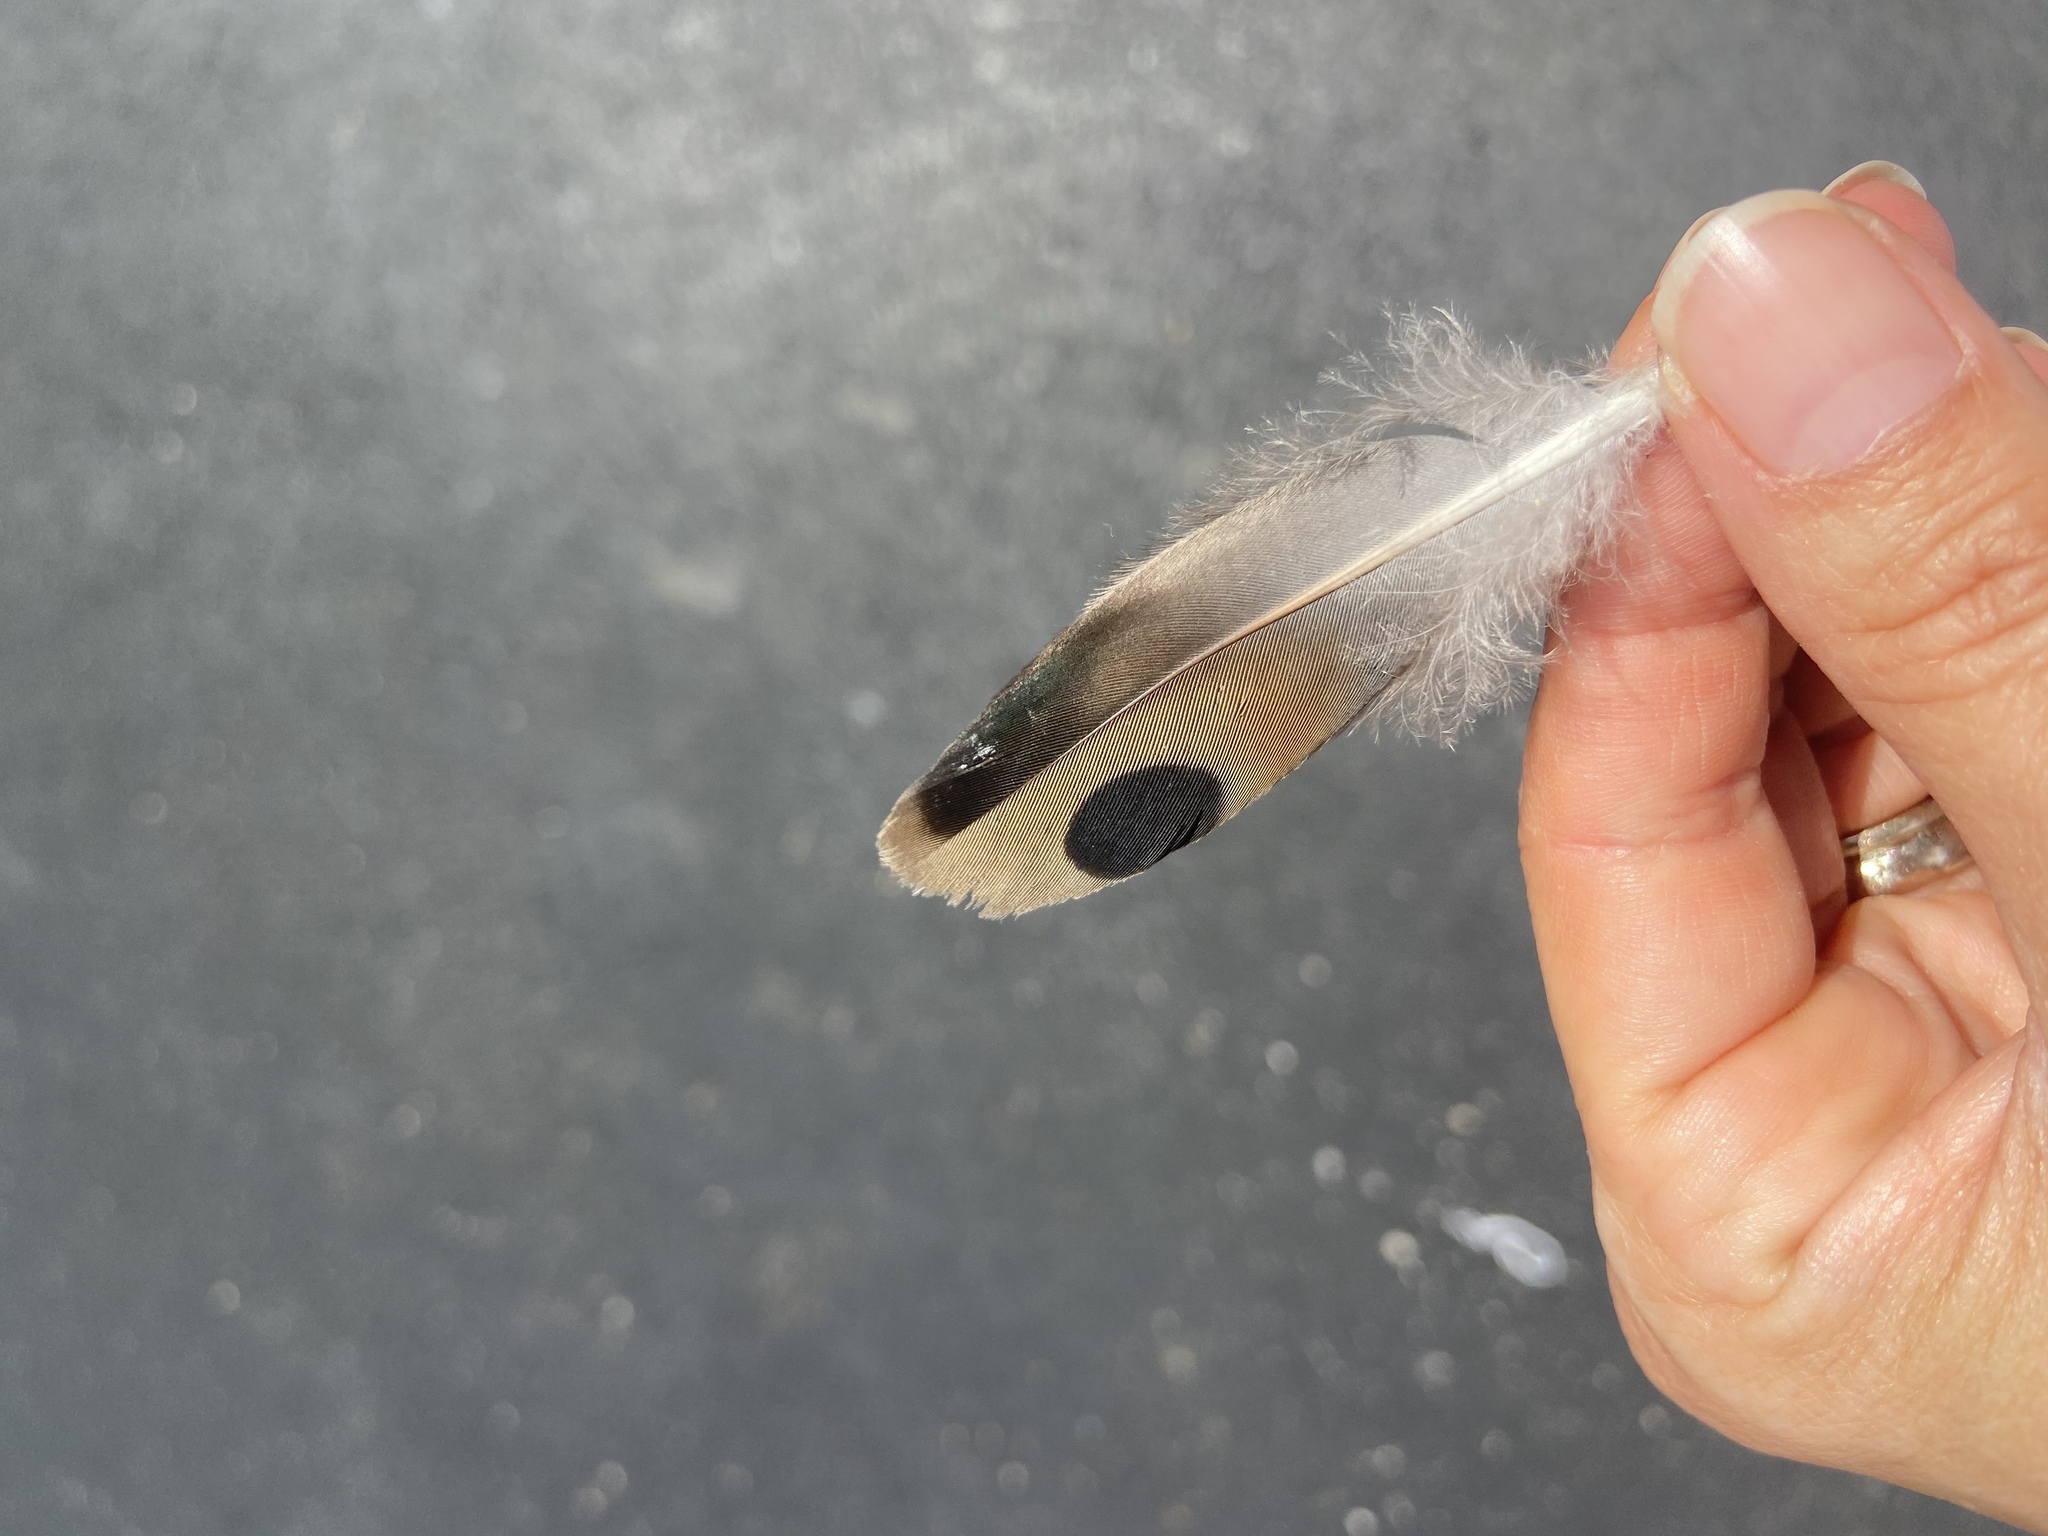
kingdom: Animalia
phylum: Chordata
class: Aves
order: Columbiformes
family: Columbidae
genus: Zenaida
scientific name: Zenaida macroura
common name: Mourning dove
